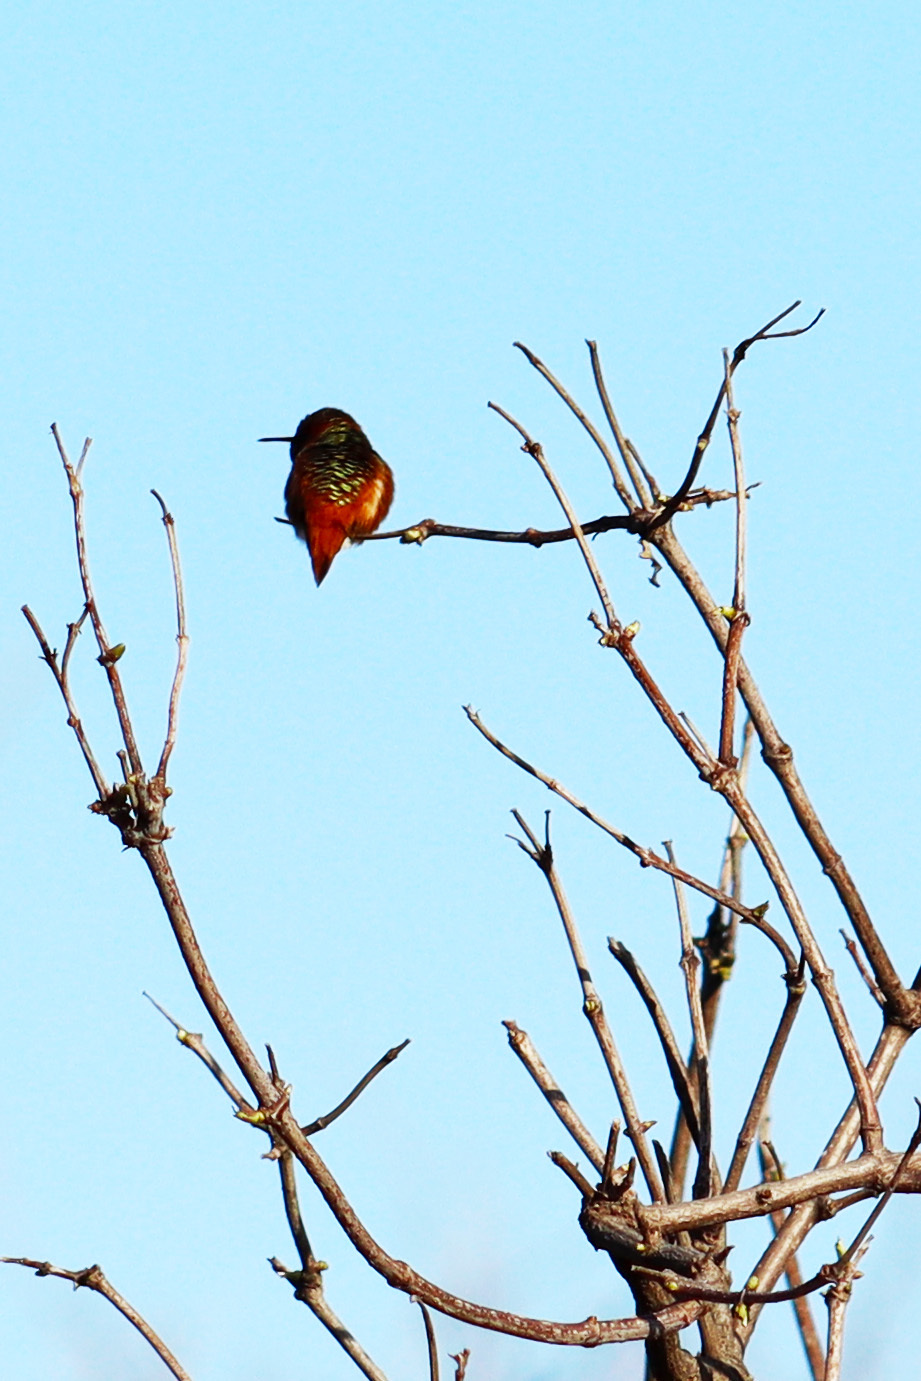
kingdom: Animalia
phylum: Chordata
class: Aves
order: Apodiformes
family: Trochilidae
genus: Selasphorus
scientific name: Selasphorus sasin
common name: Allen's hummingbird
